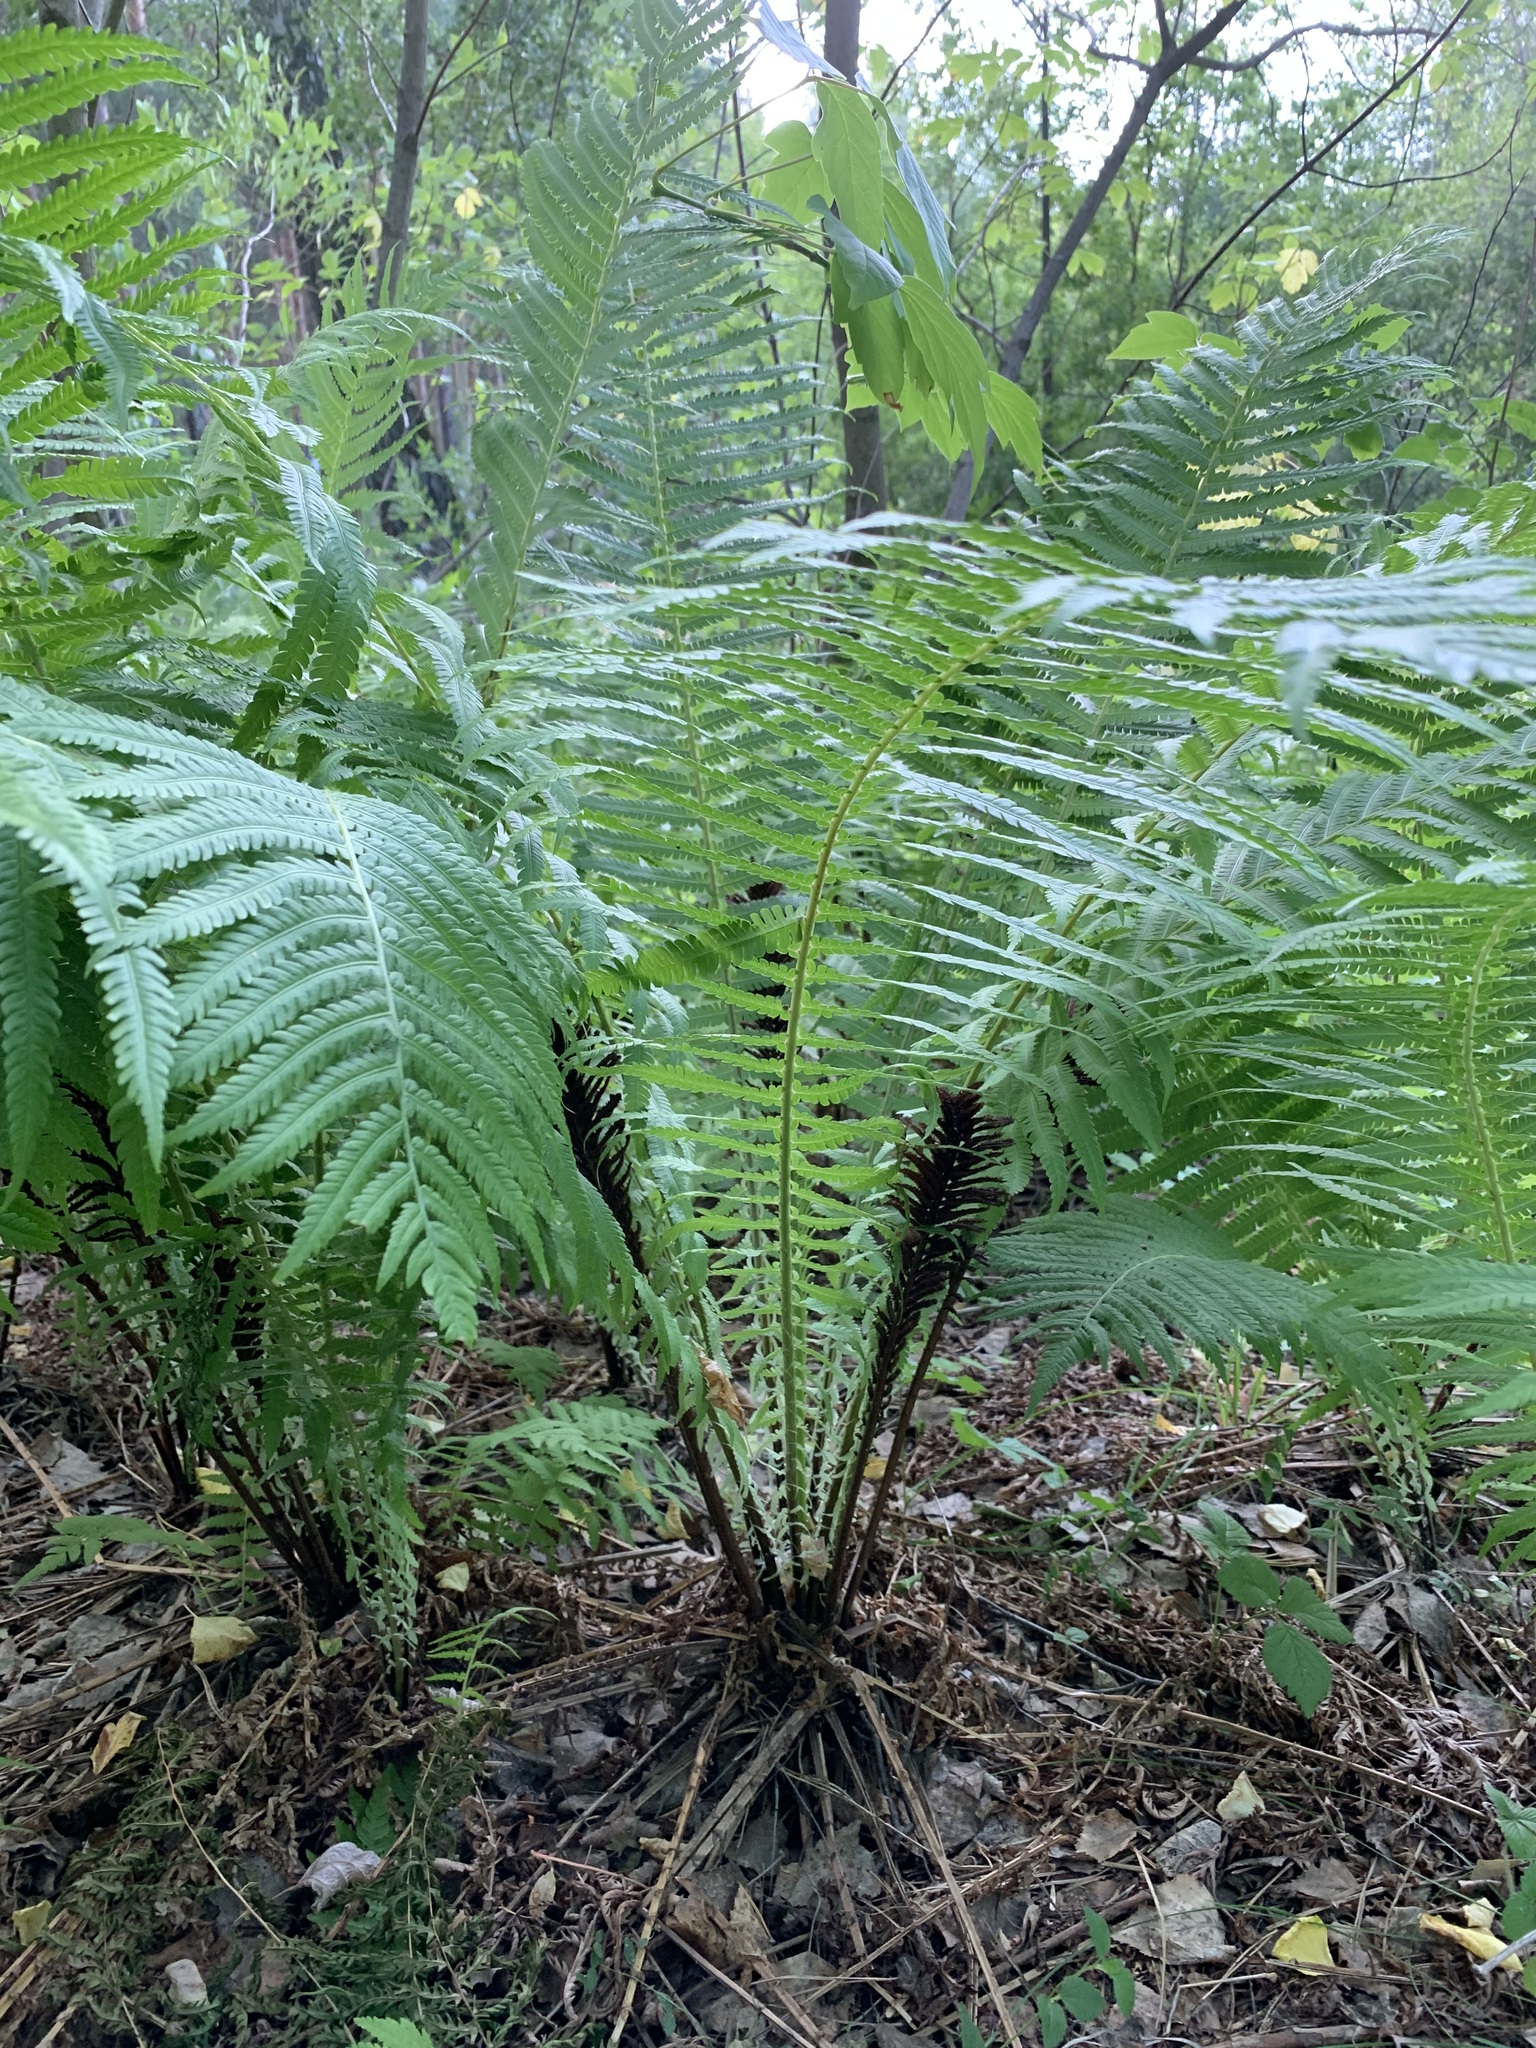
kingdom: Plantae
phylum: Tracheophyta
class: Polypodiopsida
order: Polypodiales
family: Onocleaceae
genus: Matteuccia
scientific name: Matteuccia struthiopteris
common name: Ostrich fern
